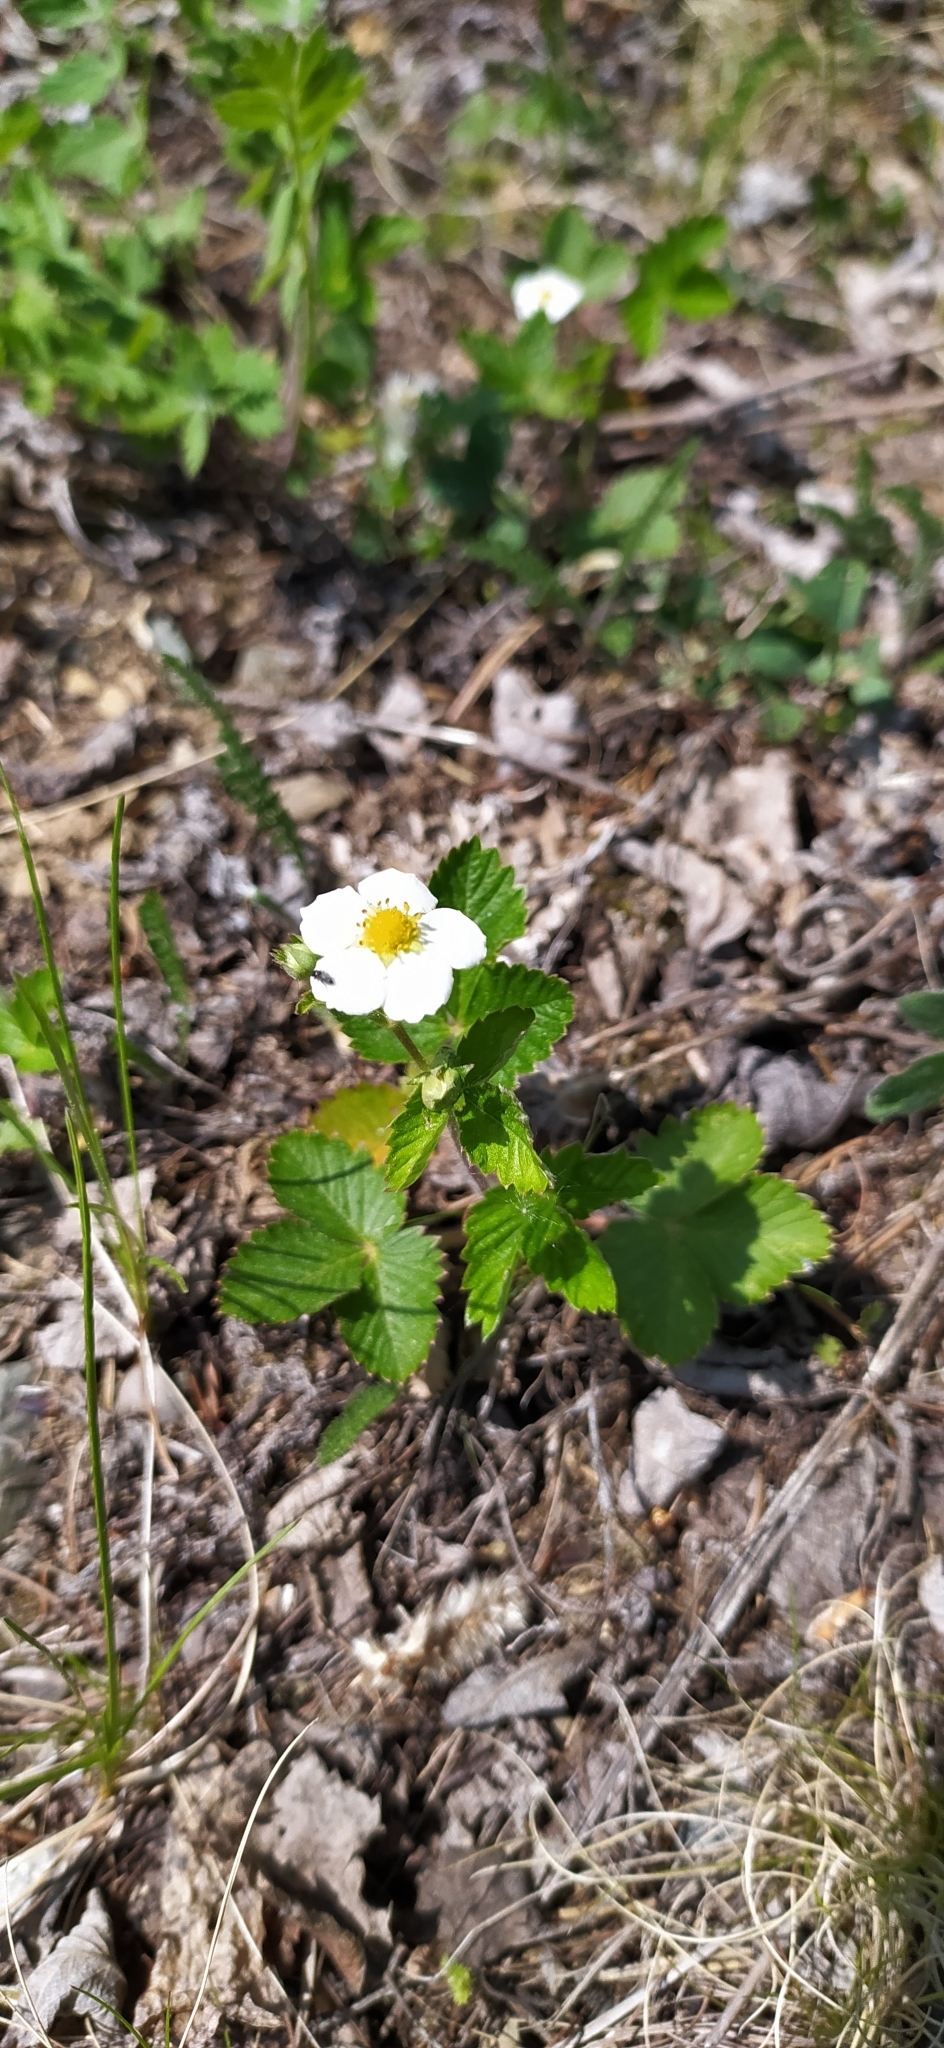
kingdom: Plantae
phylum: Tracheophyta
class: Magnoliopsida
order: Rosales
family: Rosaceae
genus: Fragaria
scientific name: Fragaria vesca
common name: Wild strawberry
